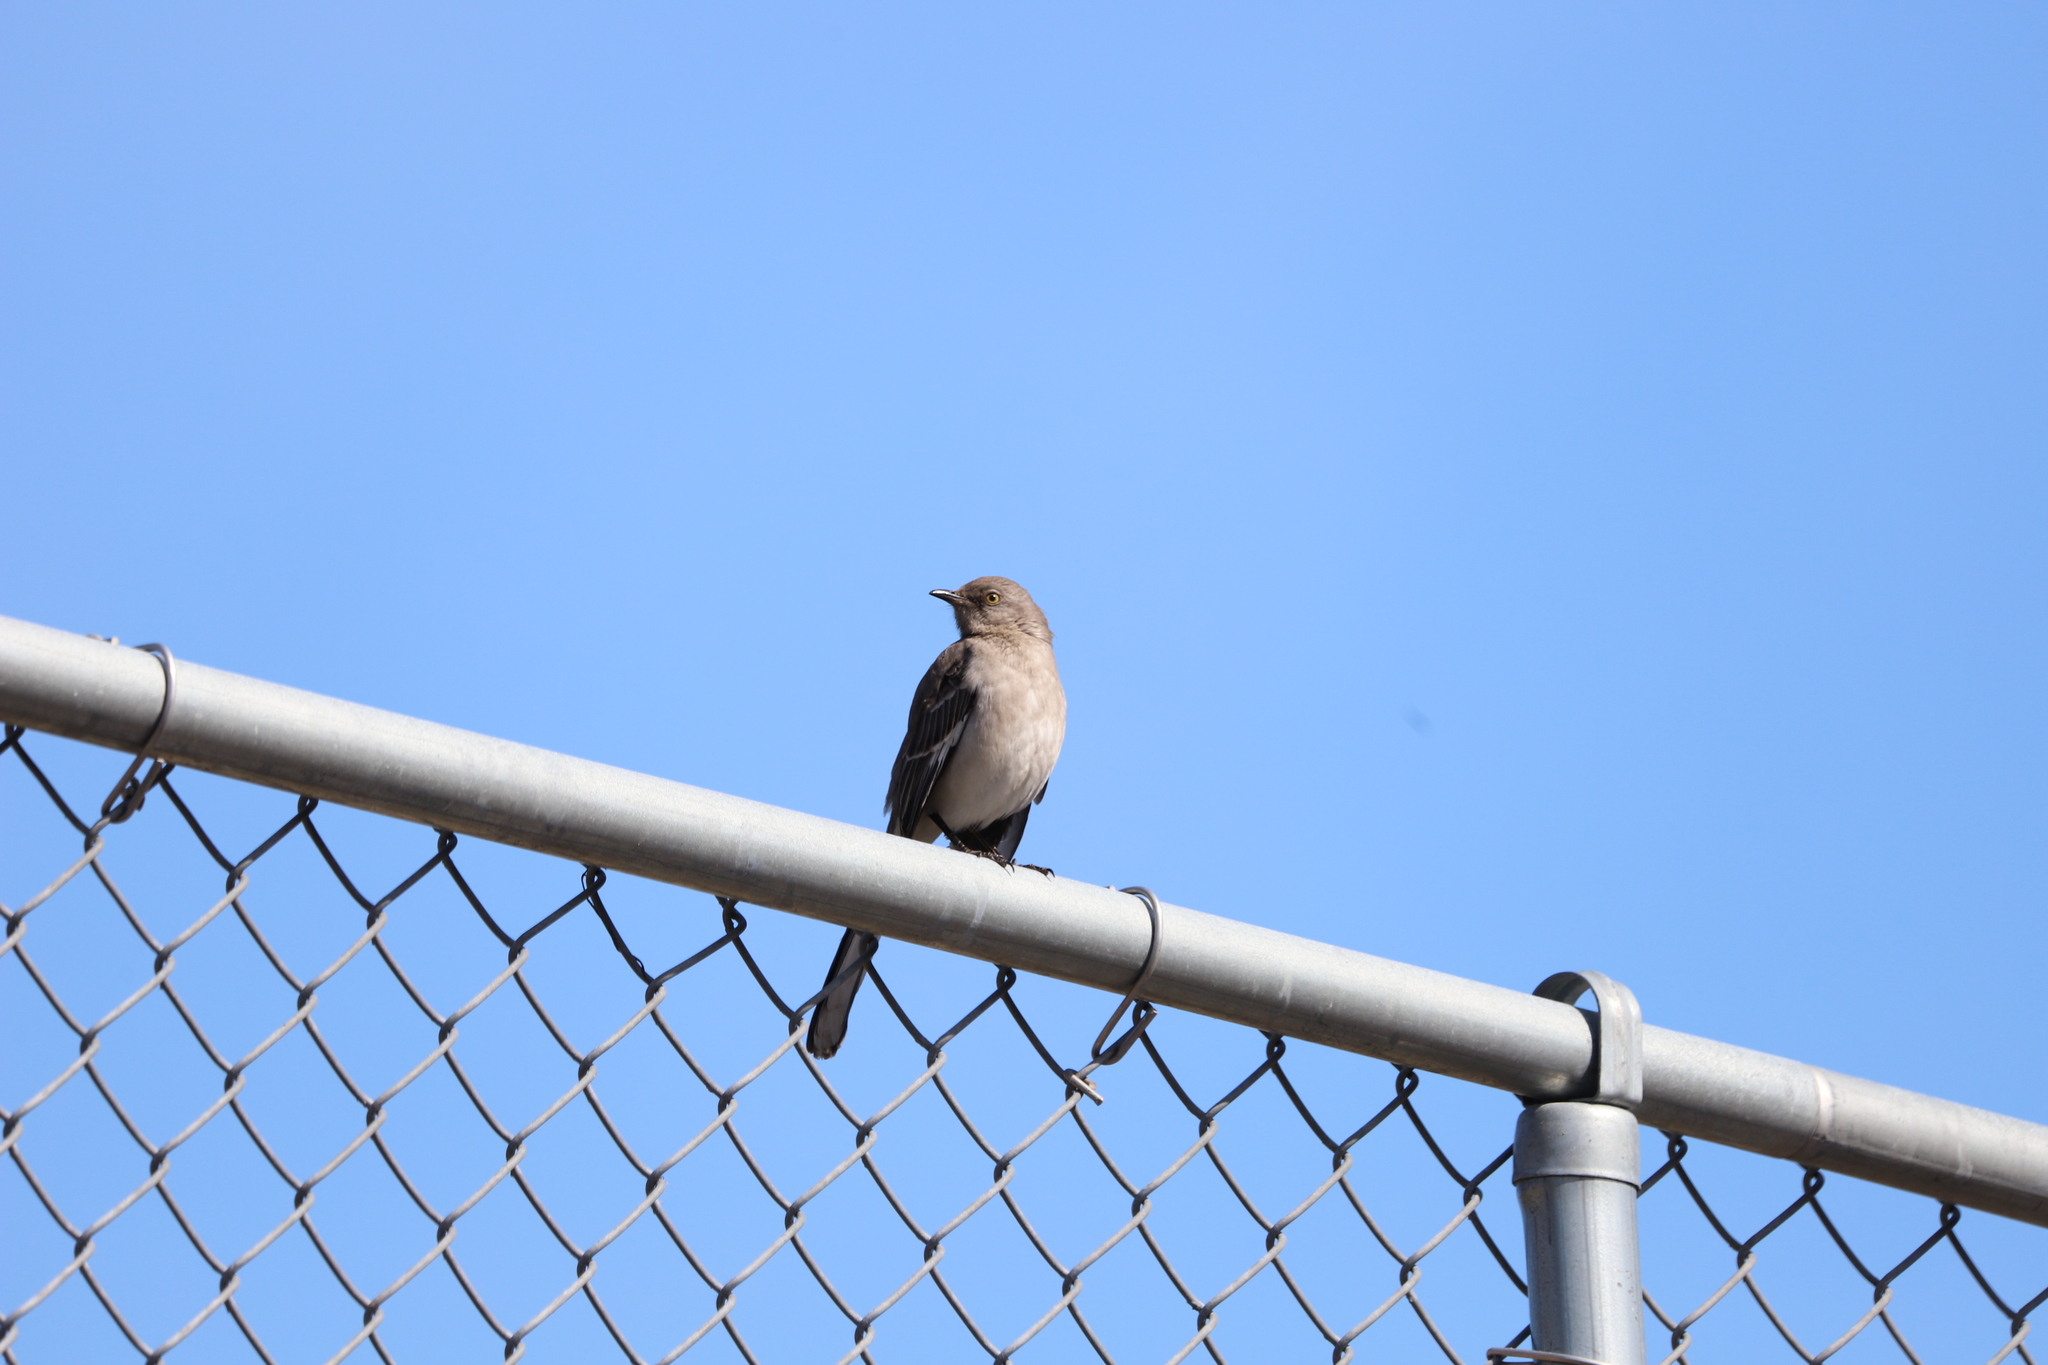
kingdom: Animalia
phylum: Chordata
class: Aves
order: Passeriformes
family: Mimidae
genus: Mimus
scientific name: Mimus polyglottos
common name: Northern mockingbird
